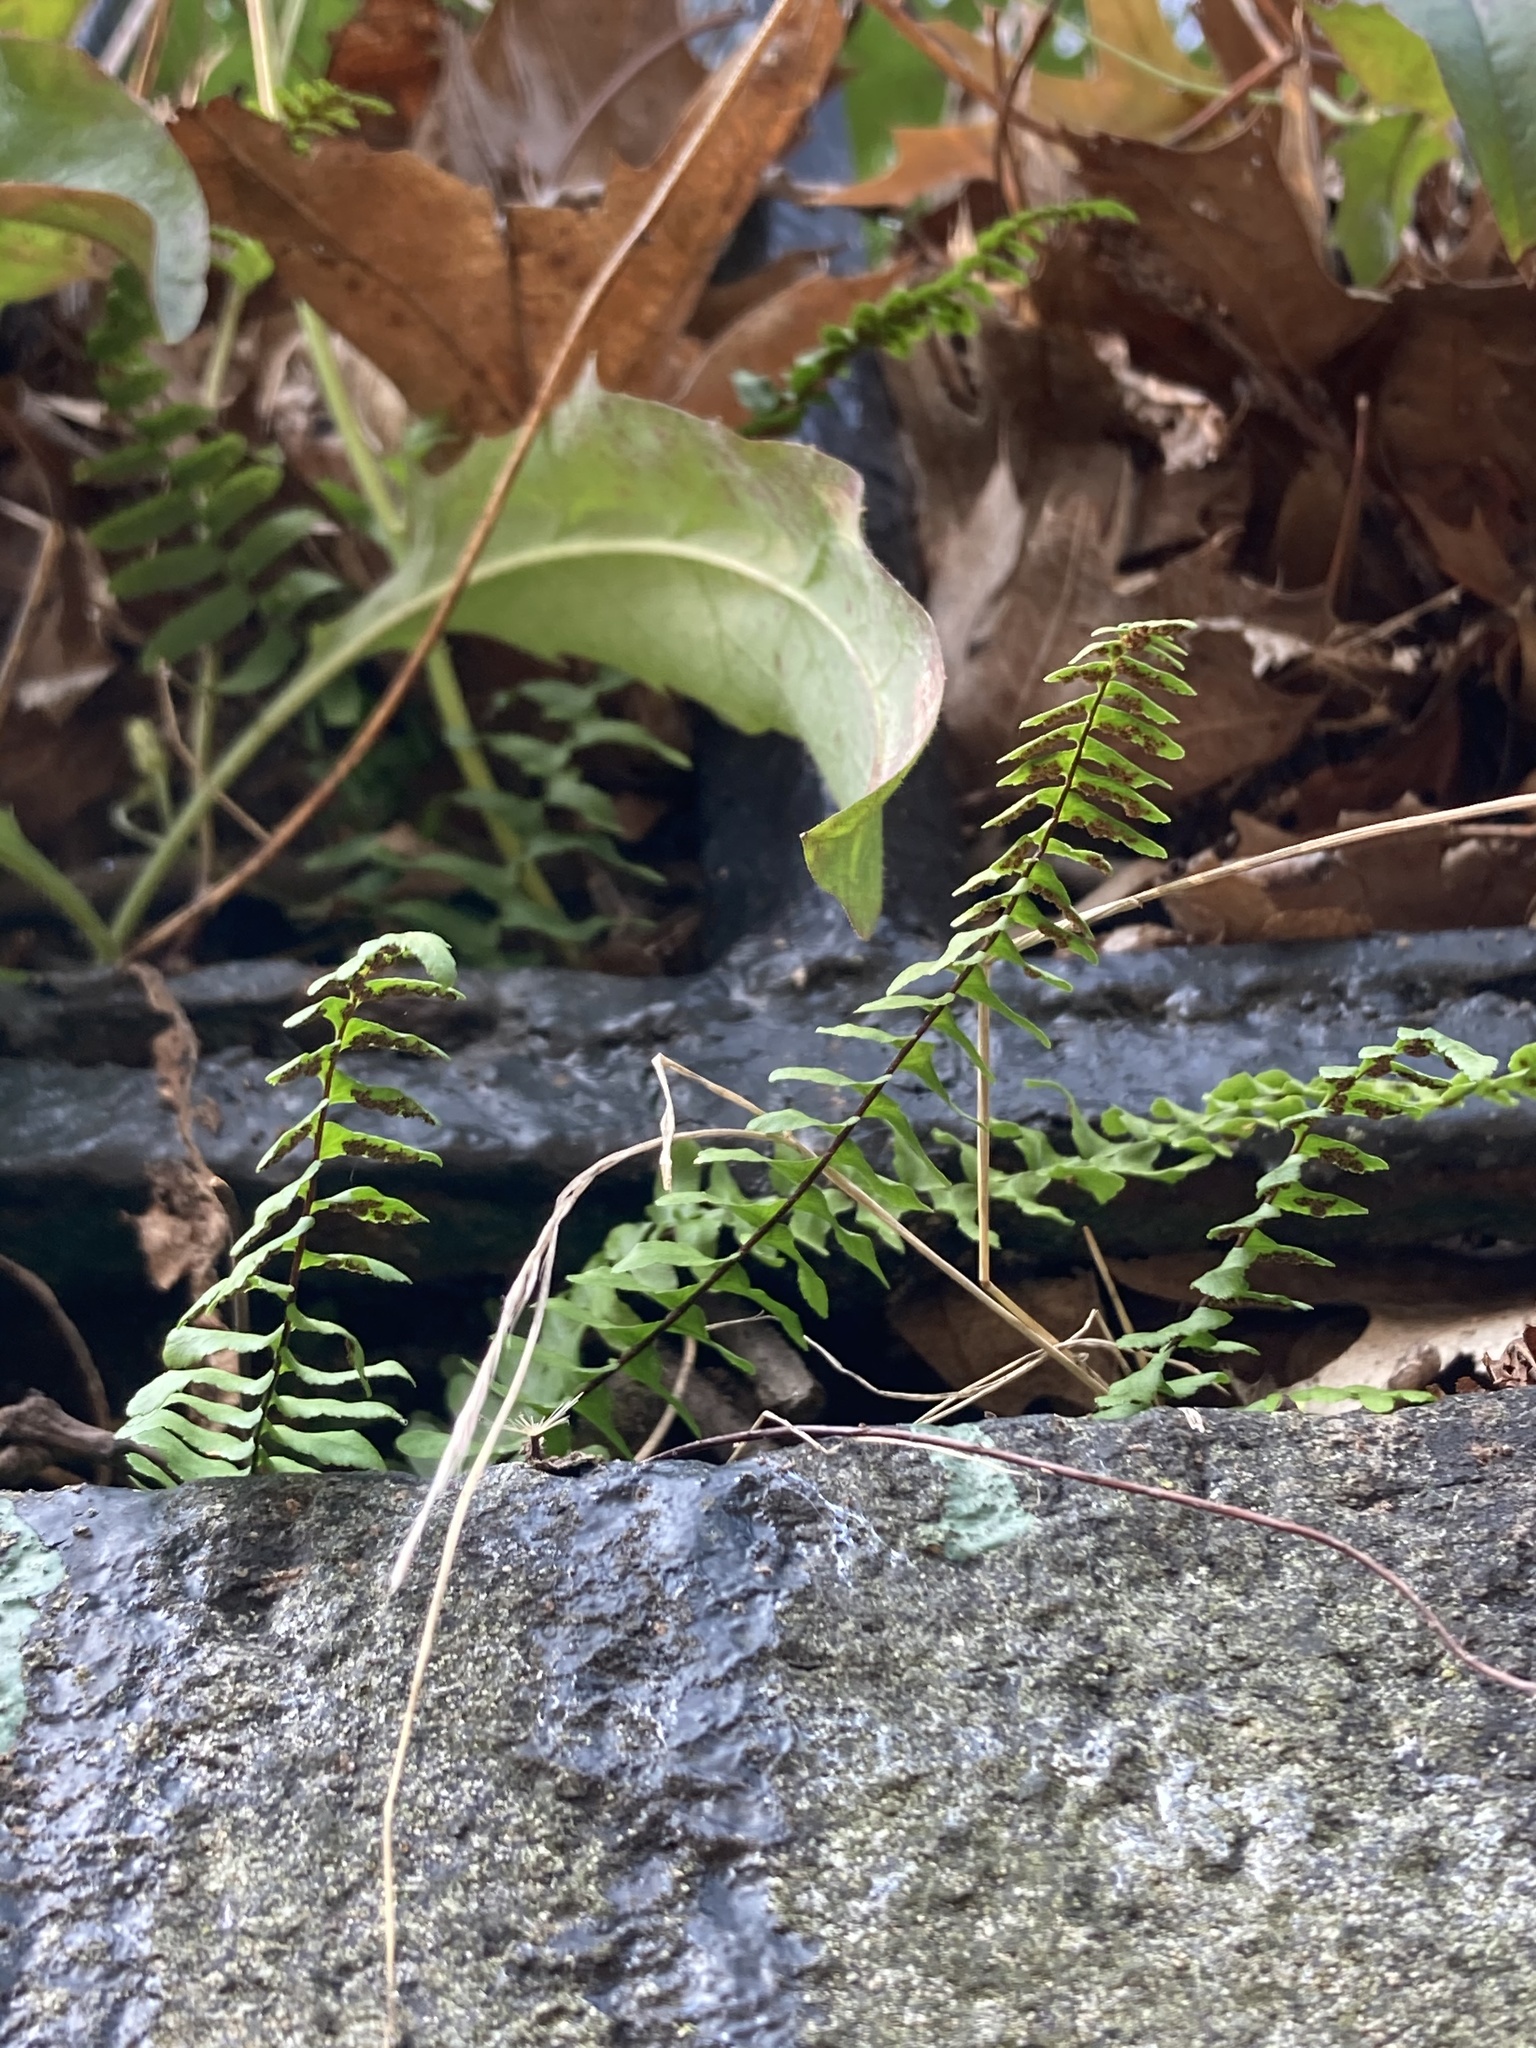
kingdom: Plantae
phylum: Tracheophyta
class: Polypodiopsida
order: Polypodiales
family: Aspleniaceae
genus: Asplenium
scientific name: Asplenium platyneuron
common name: Ebony spleenwort
